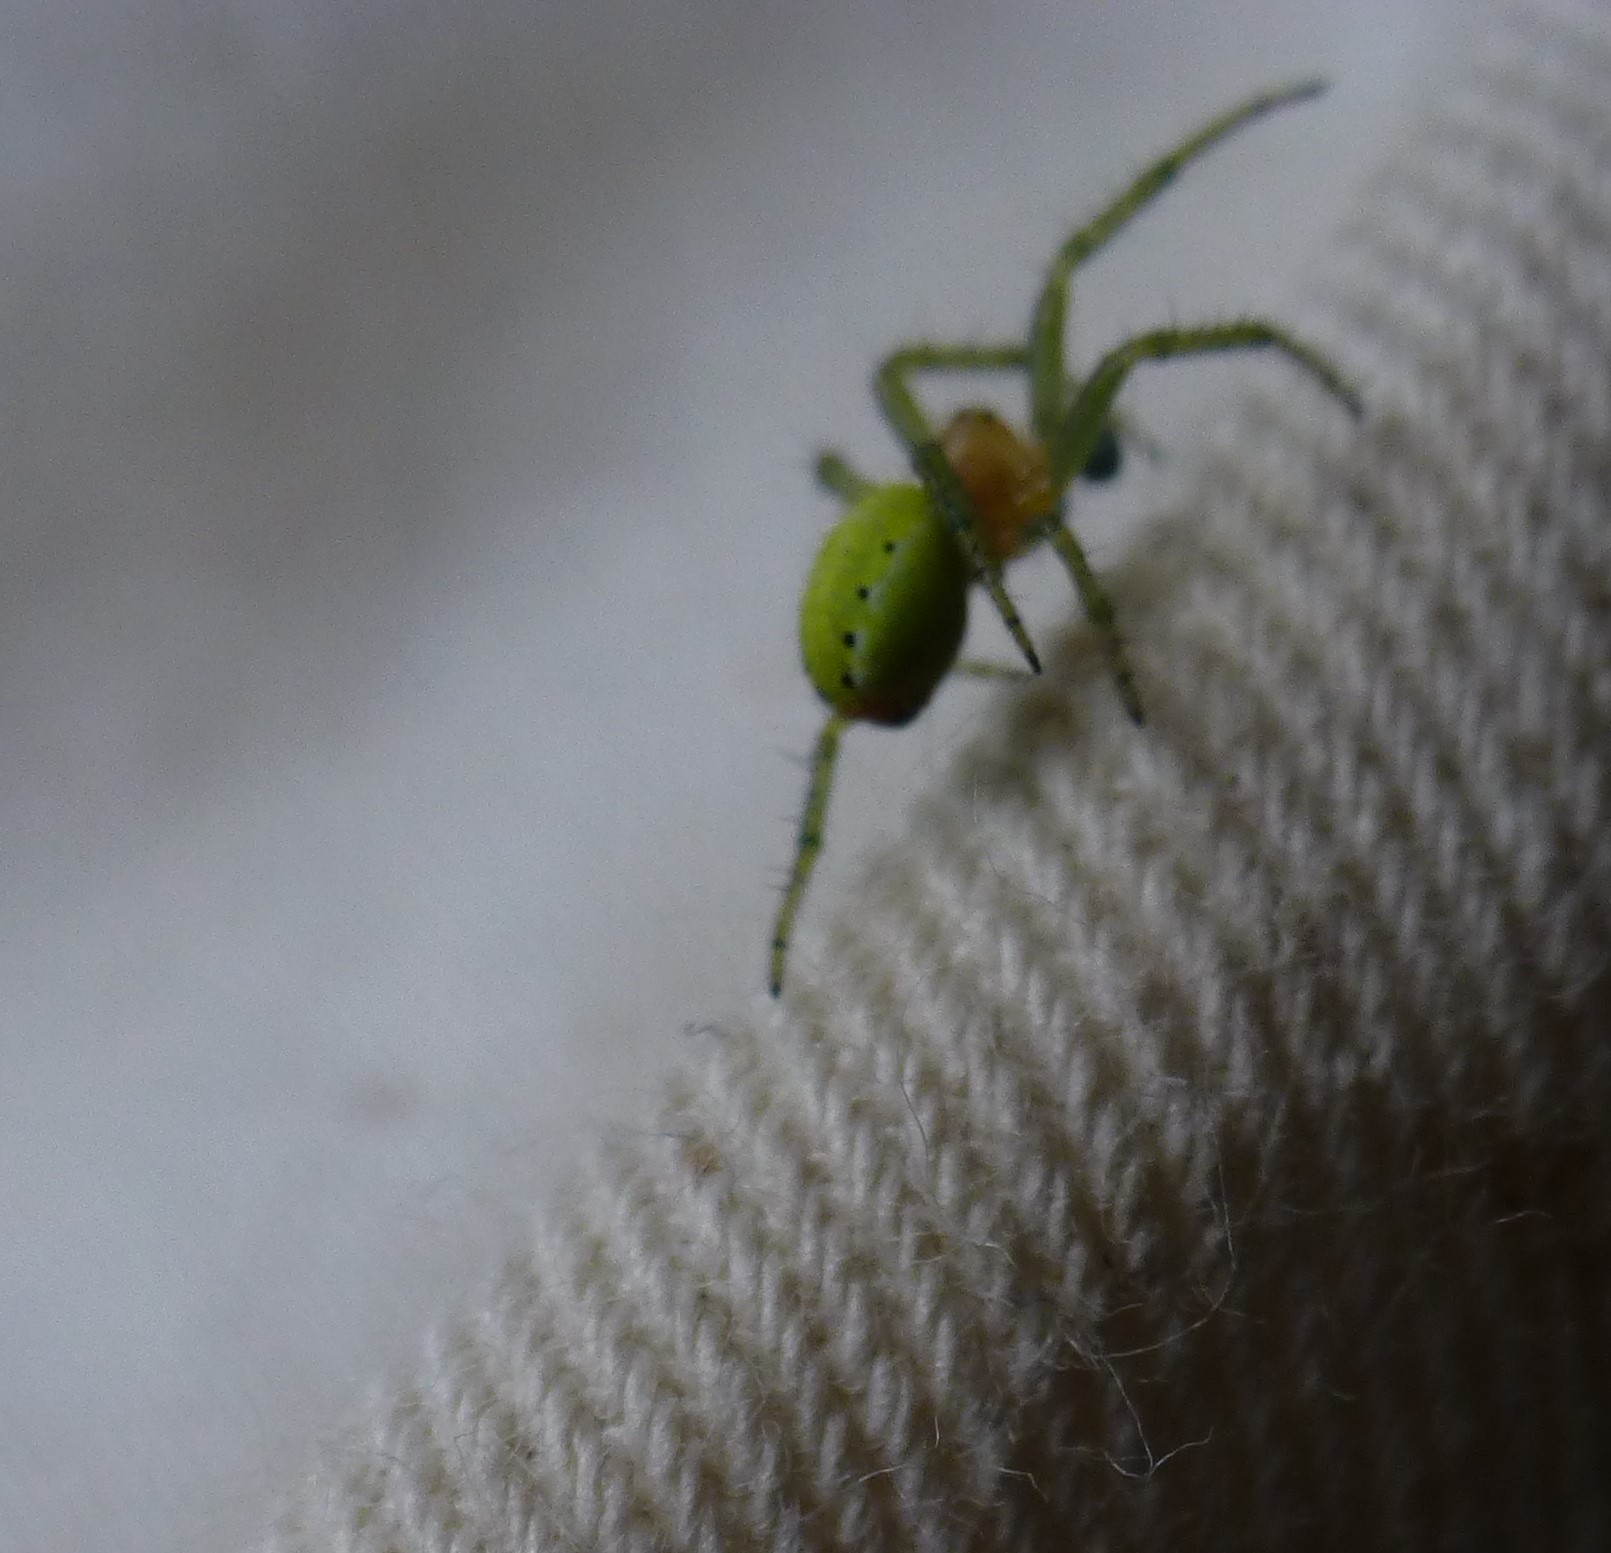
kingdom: Animalia
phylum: Arthropoda
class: Arachnida
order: Araneae
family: Araneidae
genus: Araniella
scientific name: Araniella
